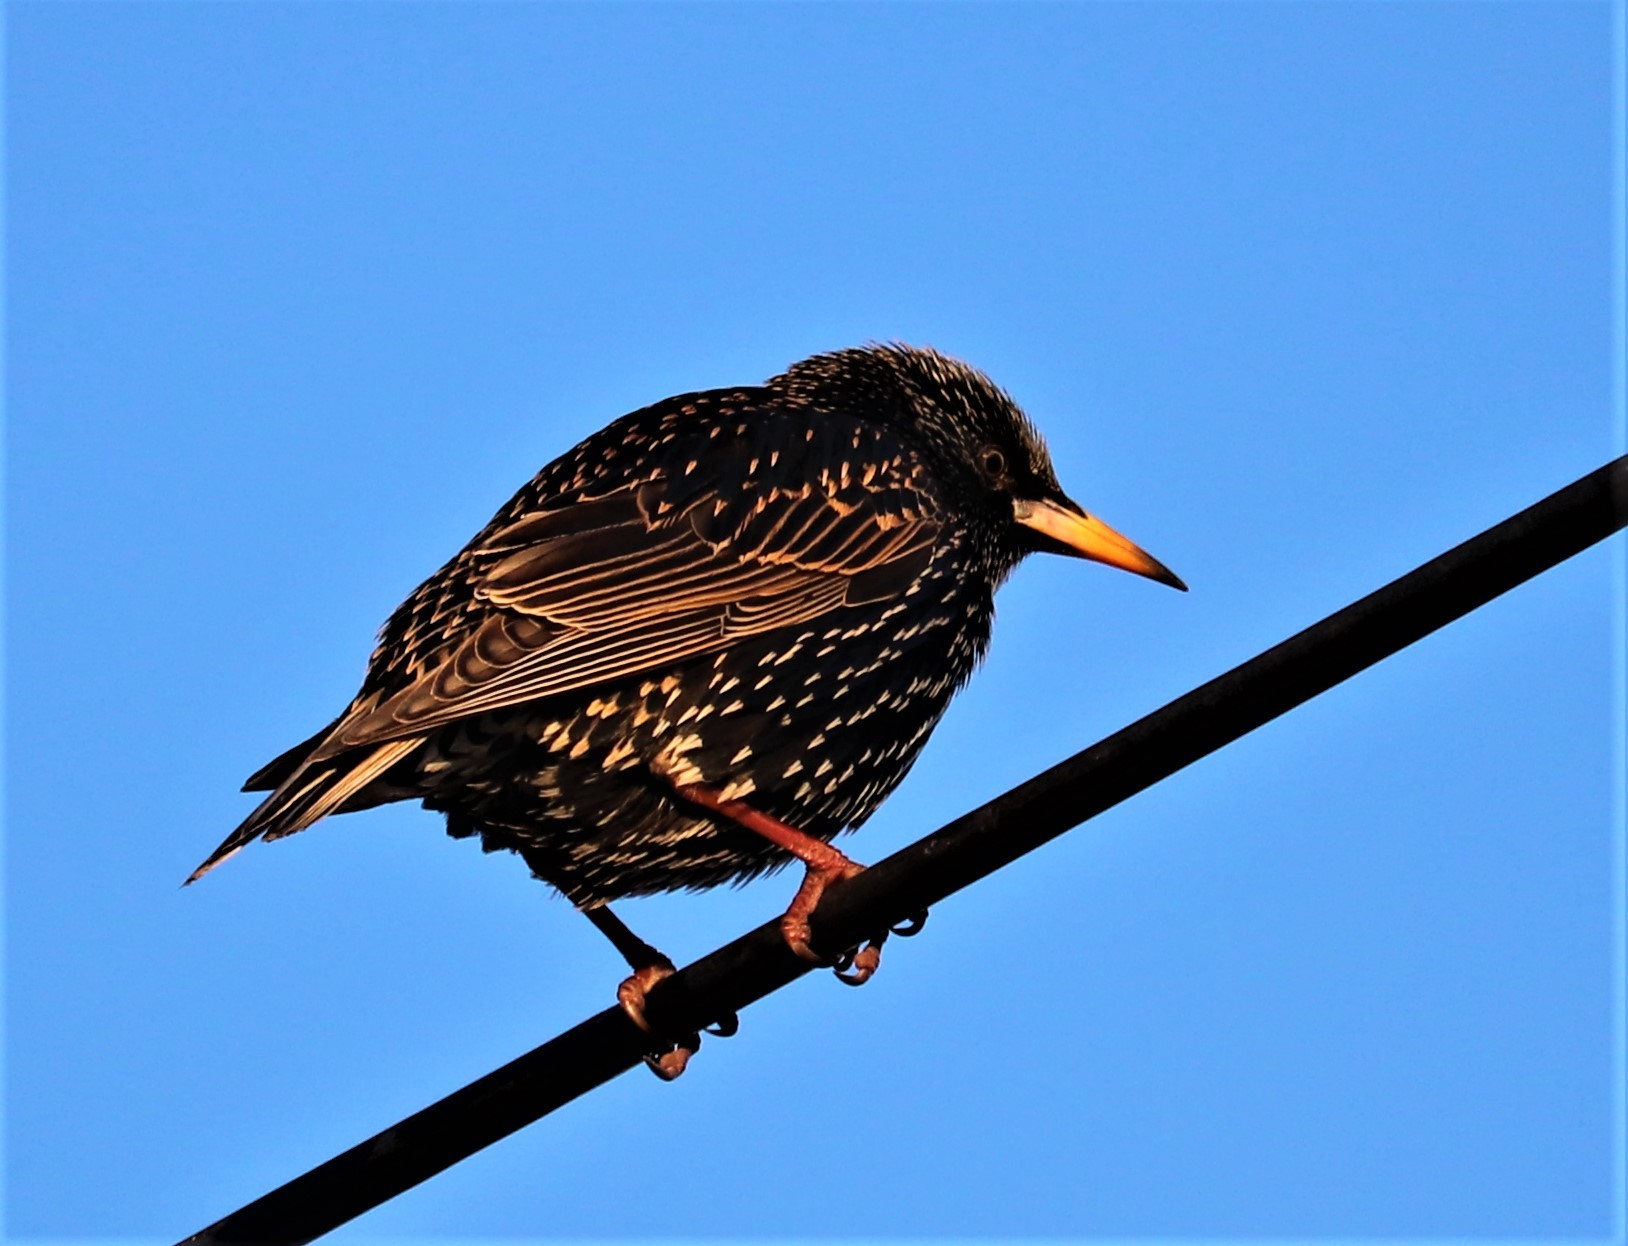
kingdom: Animalia
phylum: Chordata
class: Aves
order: Passeriformes
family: Sturnidae
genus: Sturnus
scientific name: Sturnus vulgaris
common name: Common starling
